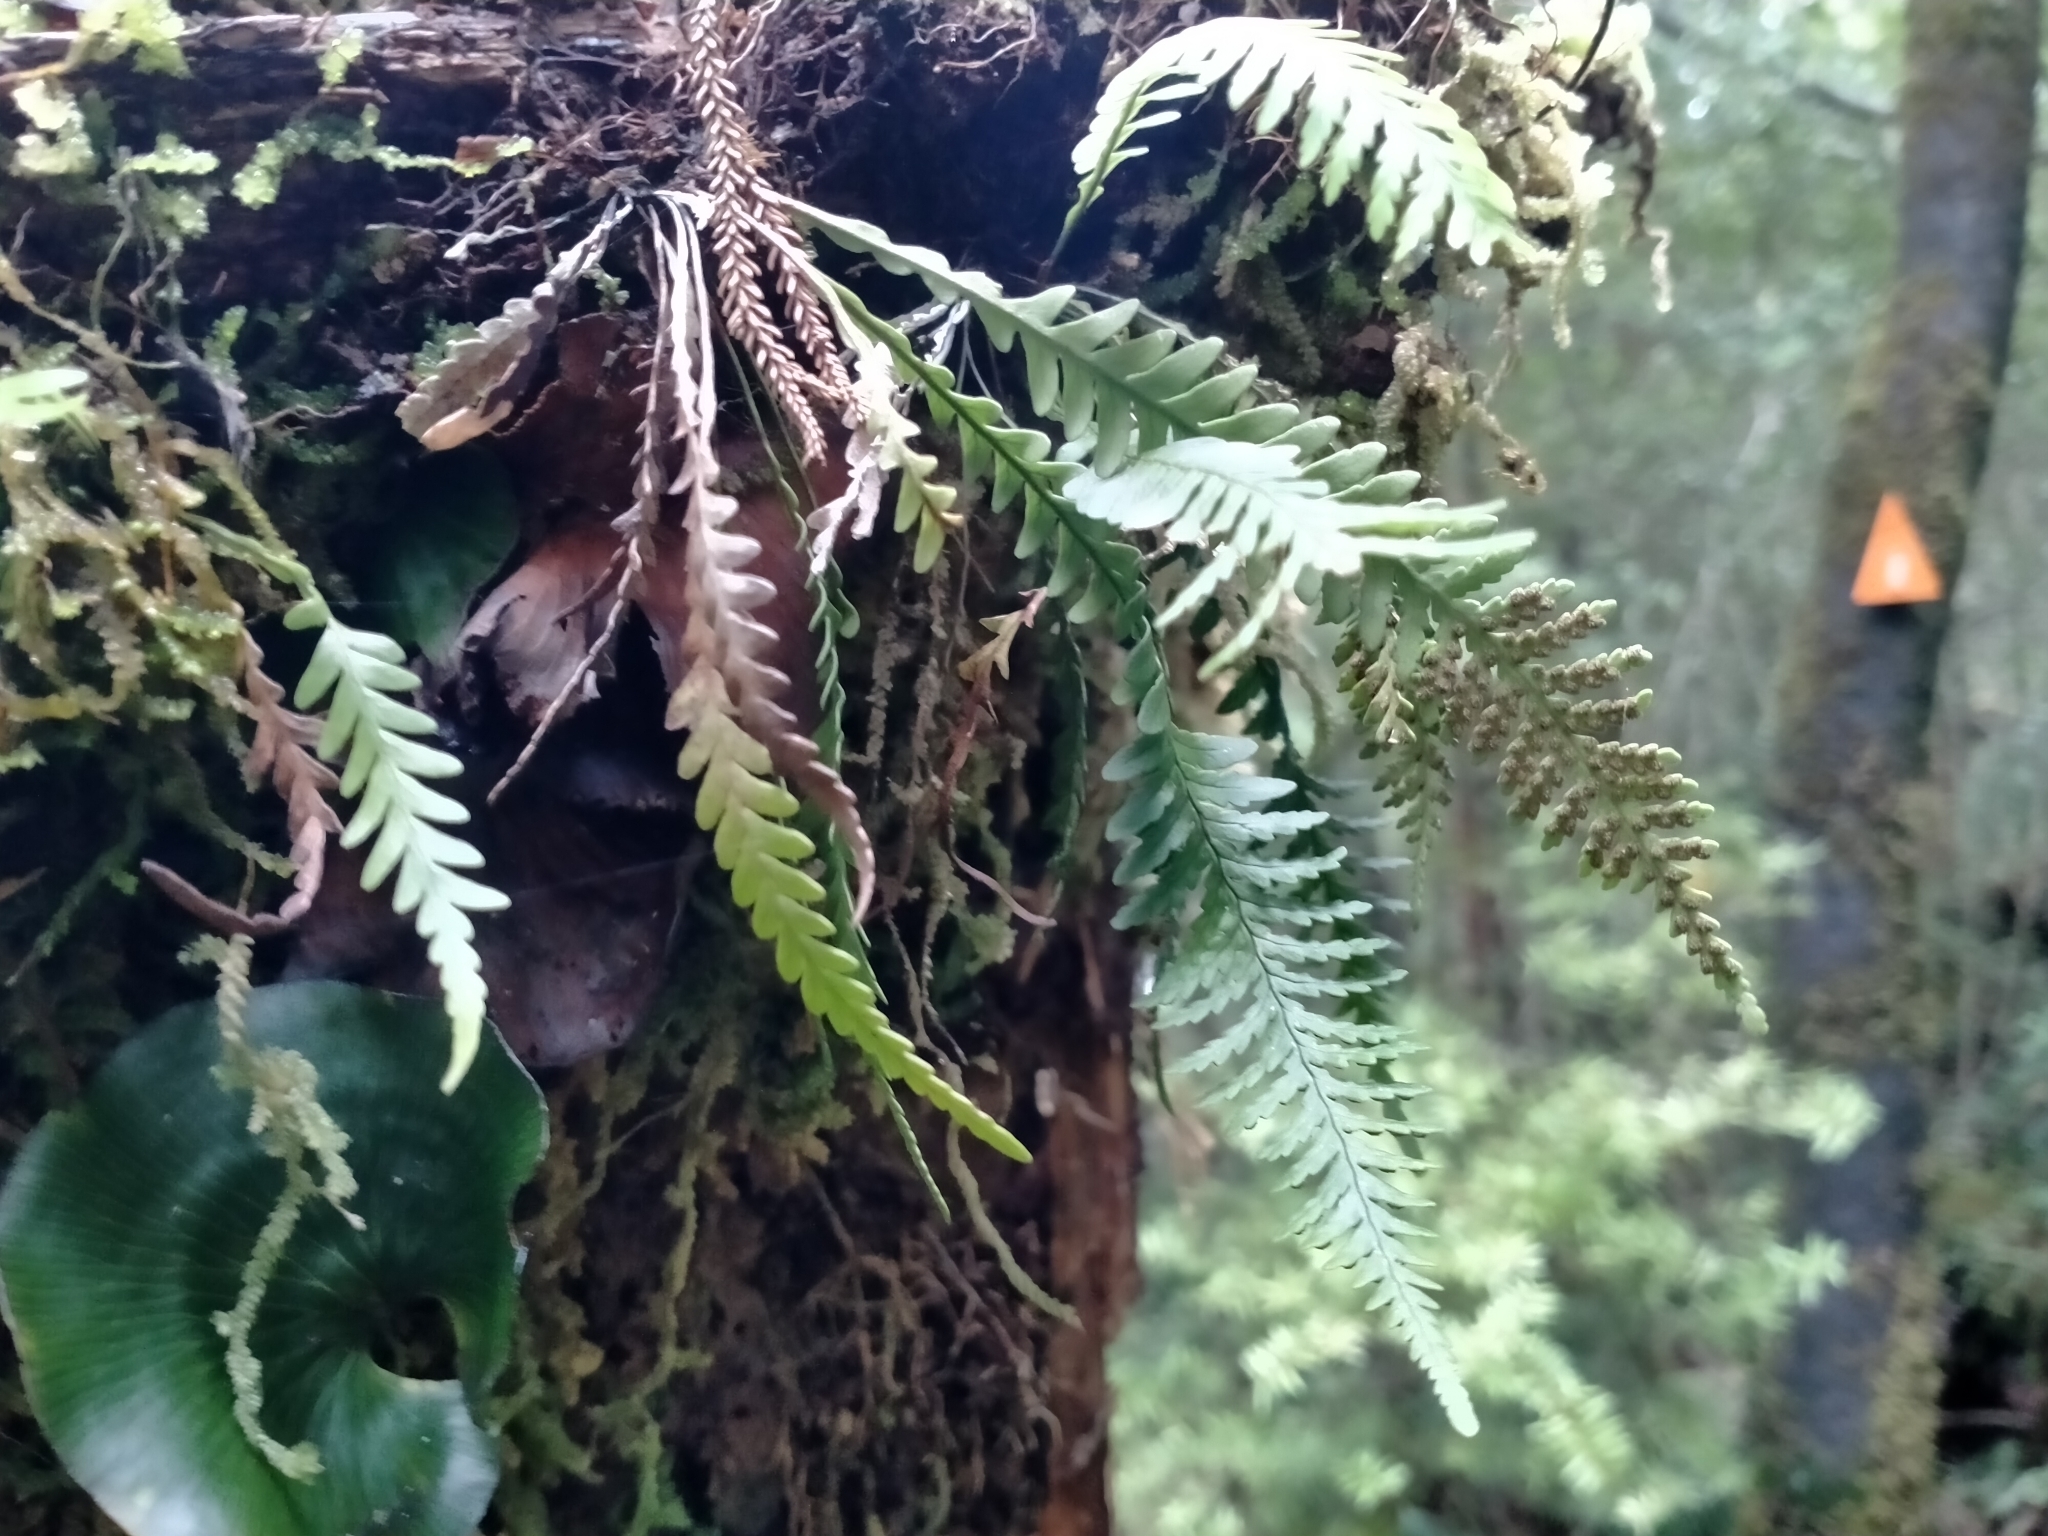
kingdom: Plantae
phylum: Tracheophyta
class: Polypodiopsida
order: Polypodiales
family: Polypodiaceae
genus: Notogrammitis
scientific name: Notogrammitis heterophylla
